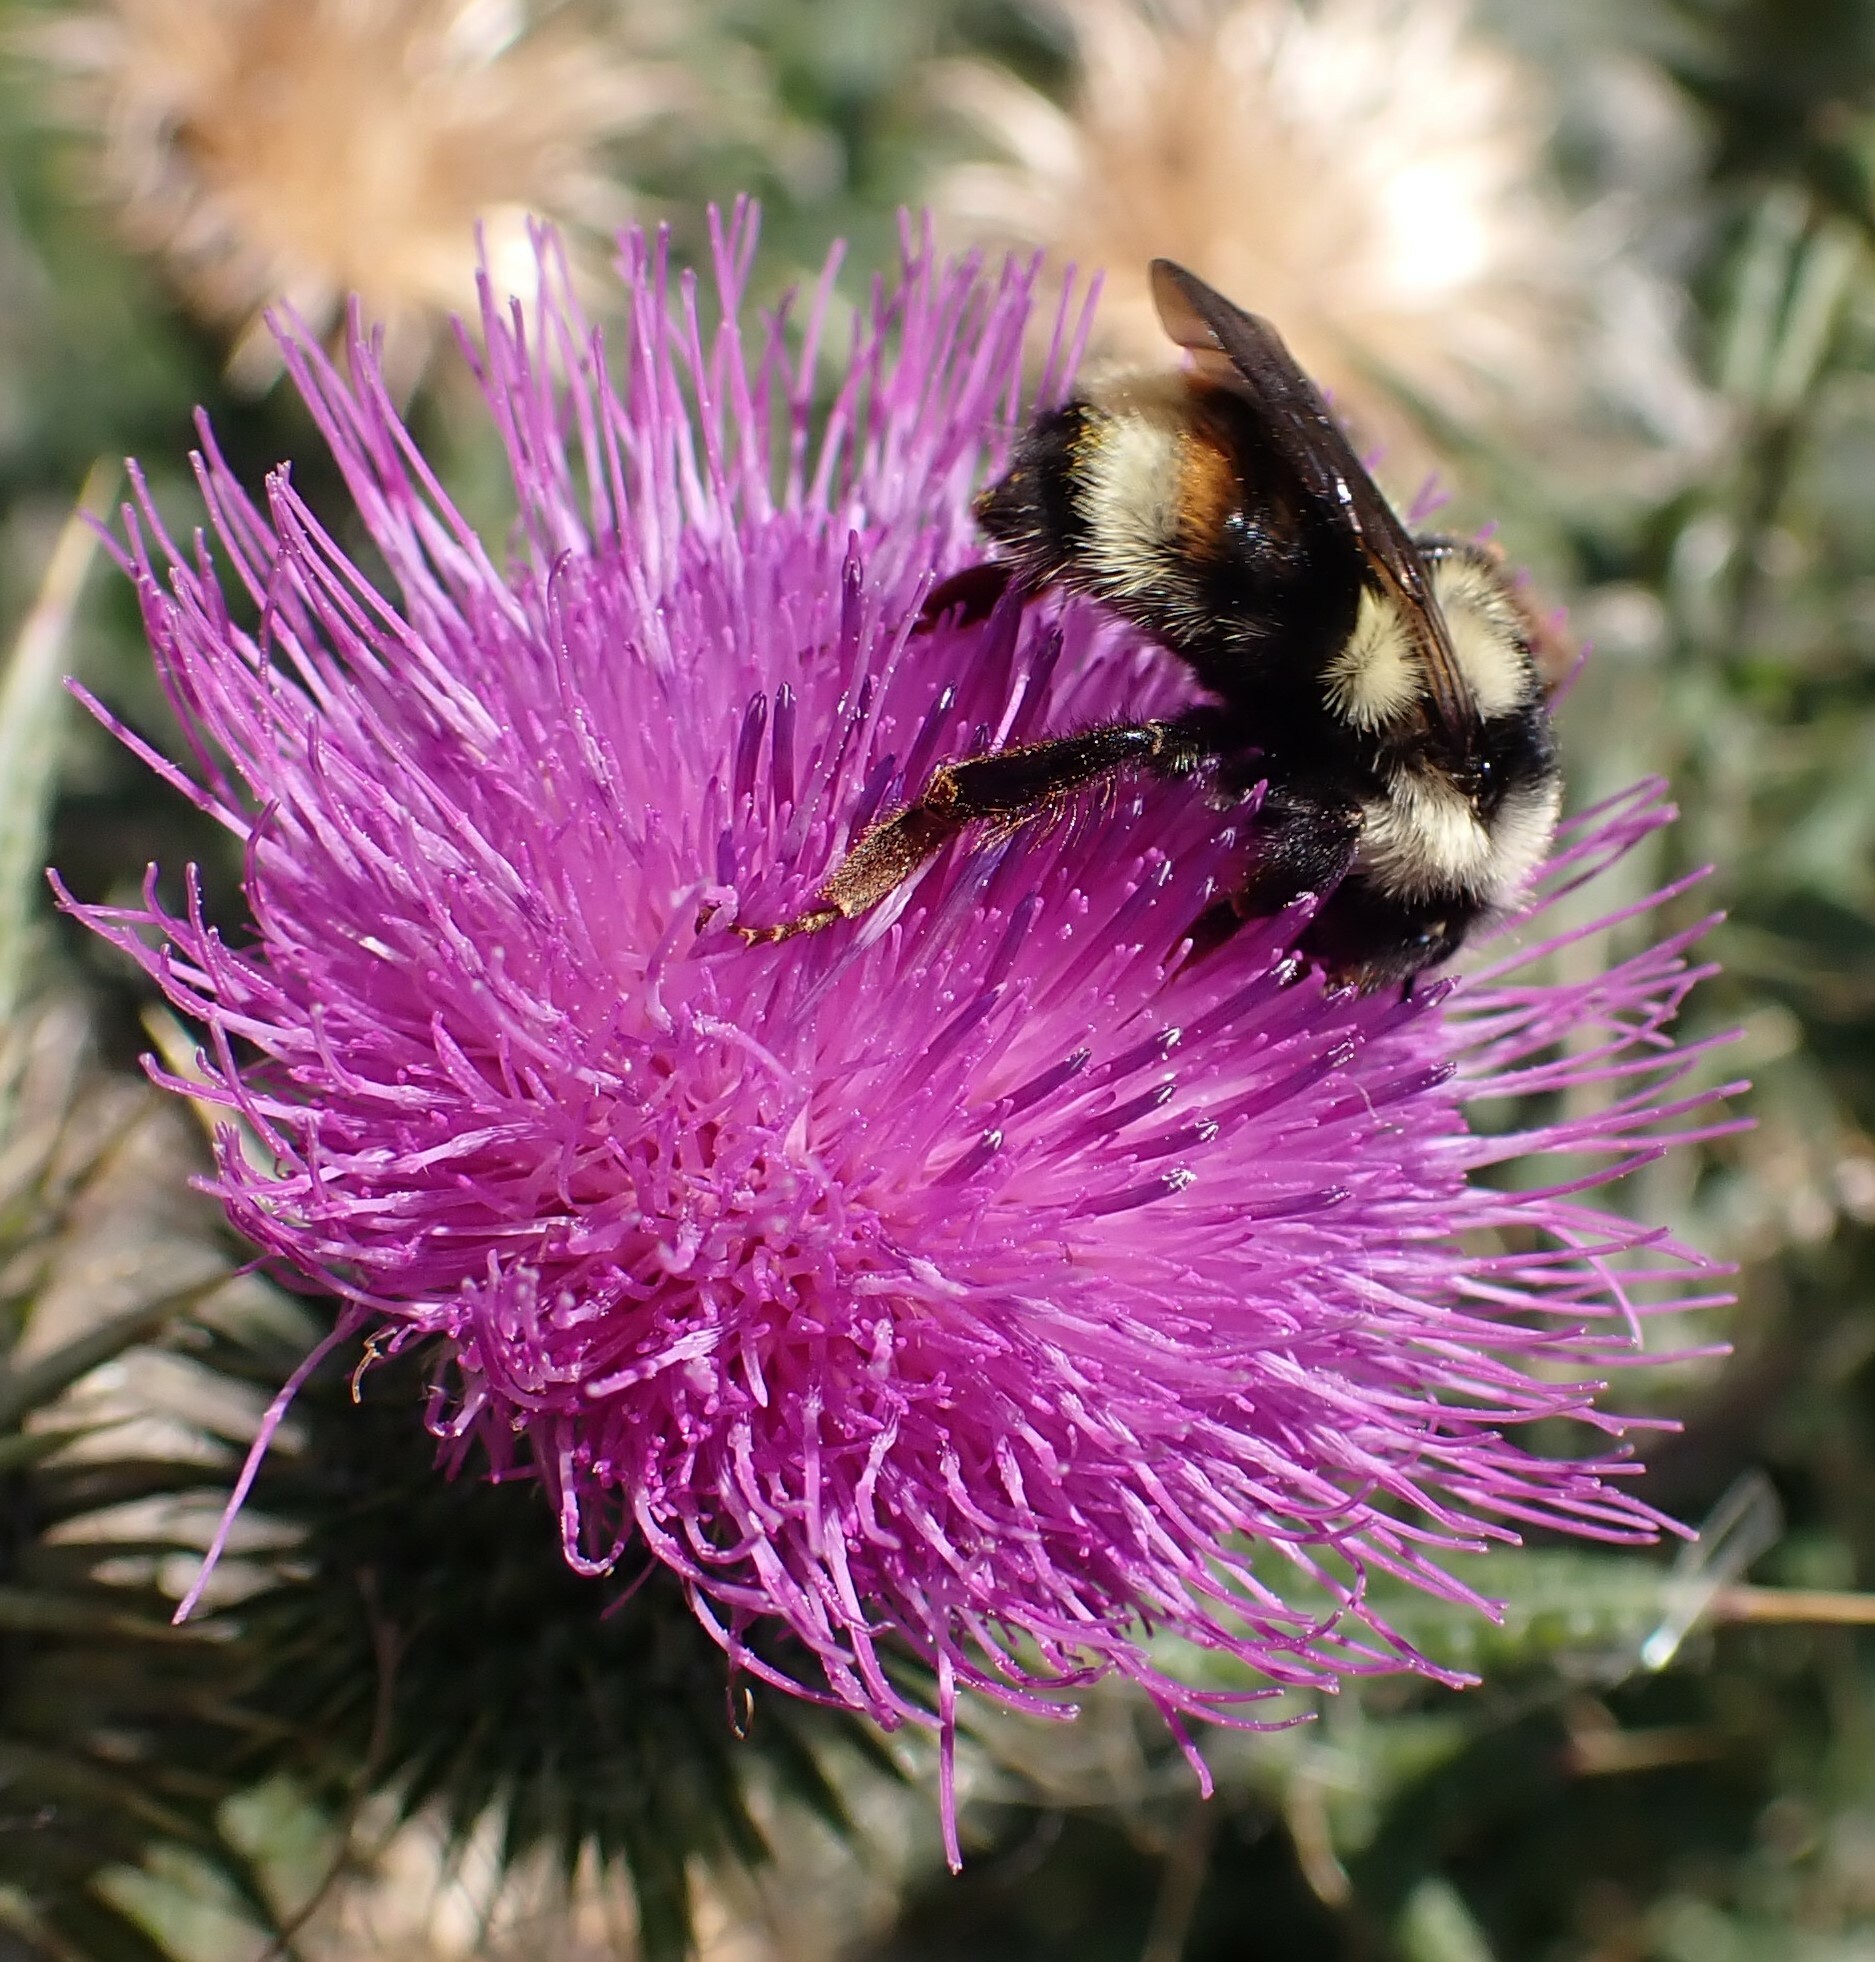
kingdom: Animalia
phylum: Arthropoda
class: Insecta
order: Hymenoptera
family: Apidae
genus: Bombus
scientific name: Bombus vancouverensis
